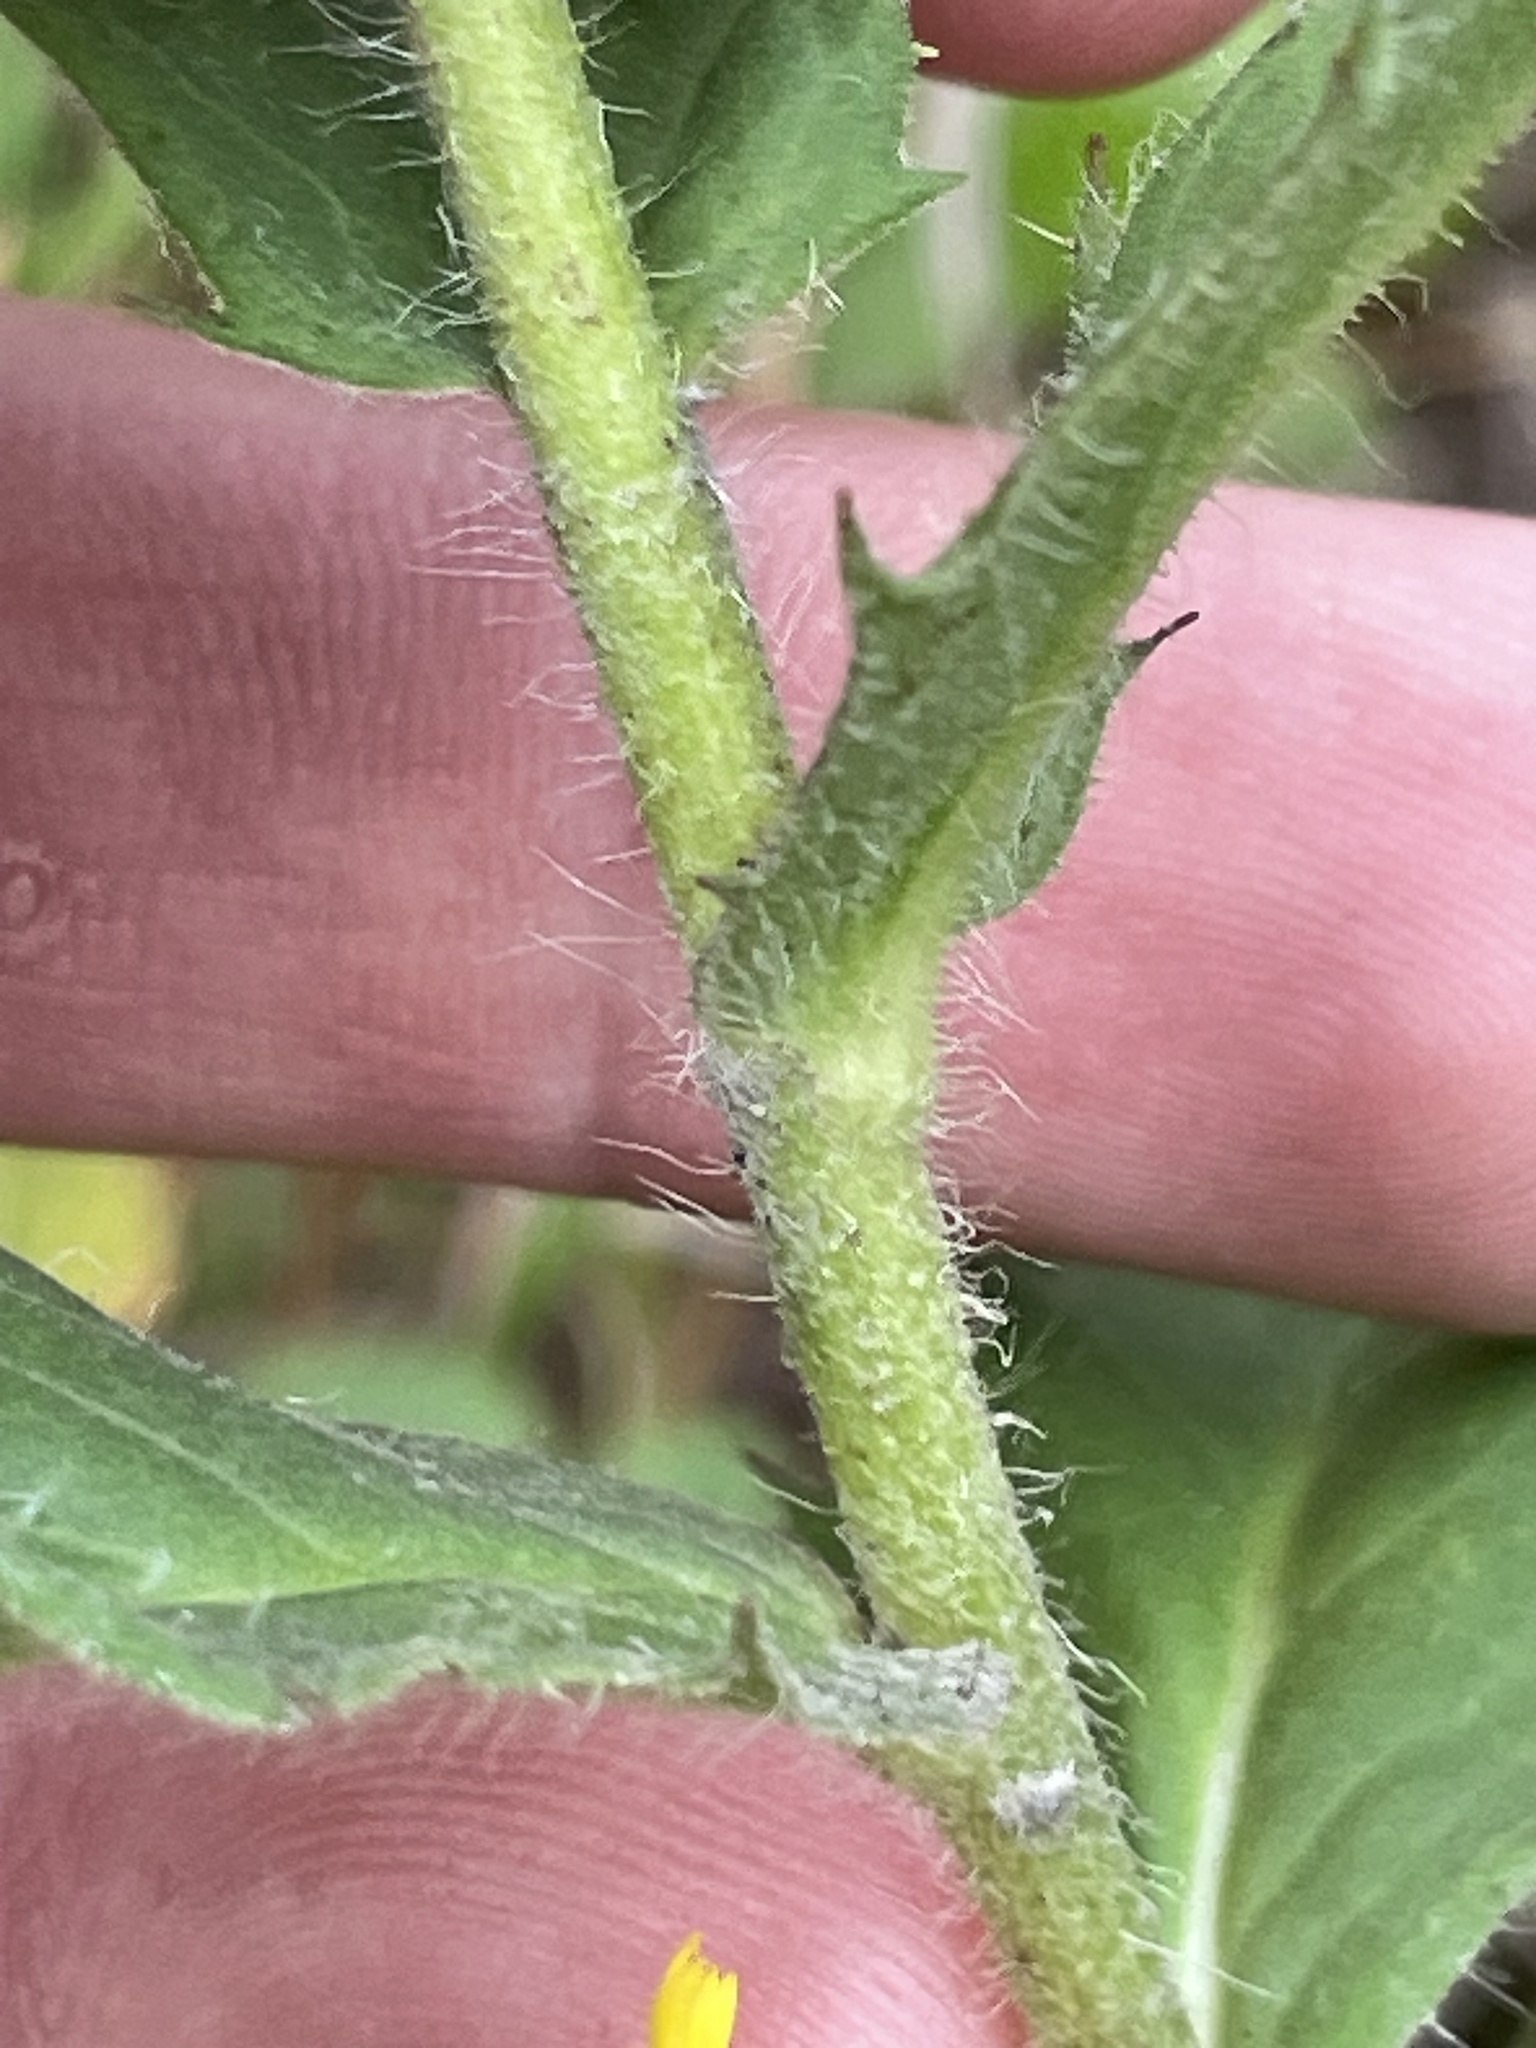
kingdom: Plantae
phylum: Tracheophyta
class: Magnoliopsida
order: Asterales
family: Asteraceae
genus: Hieracium
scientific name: Hieracium sabaudum
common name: New england hawkweed
